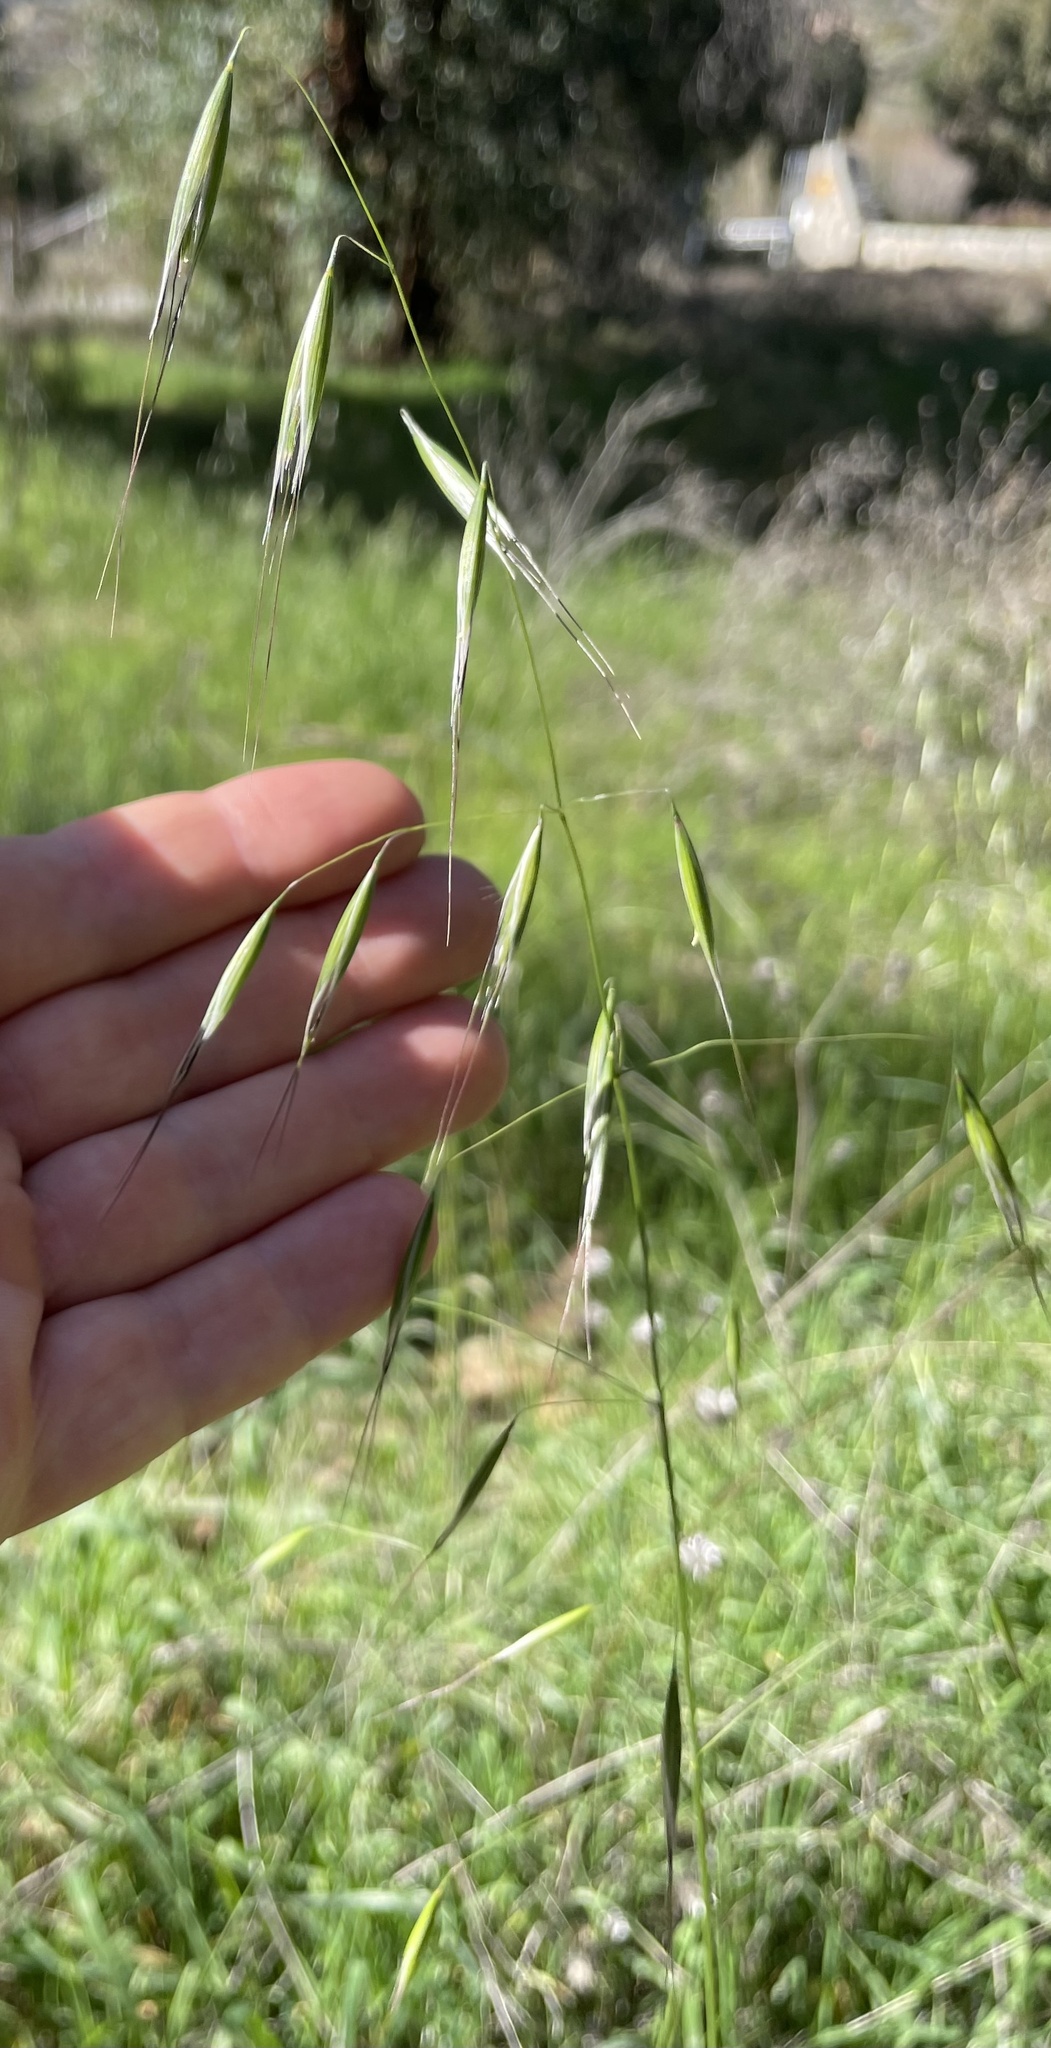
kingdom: Plantae
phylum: Tracheophyta
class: Liliopsida
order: Poales
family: Poaceae
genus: Avena
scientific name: Avena barbata
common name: Slender oat
